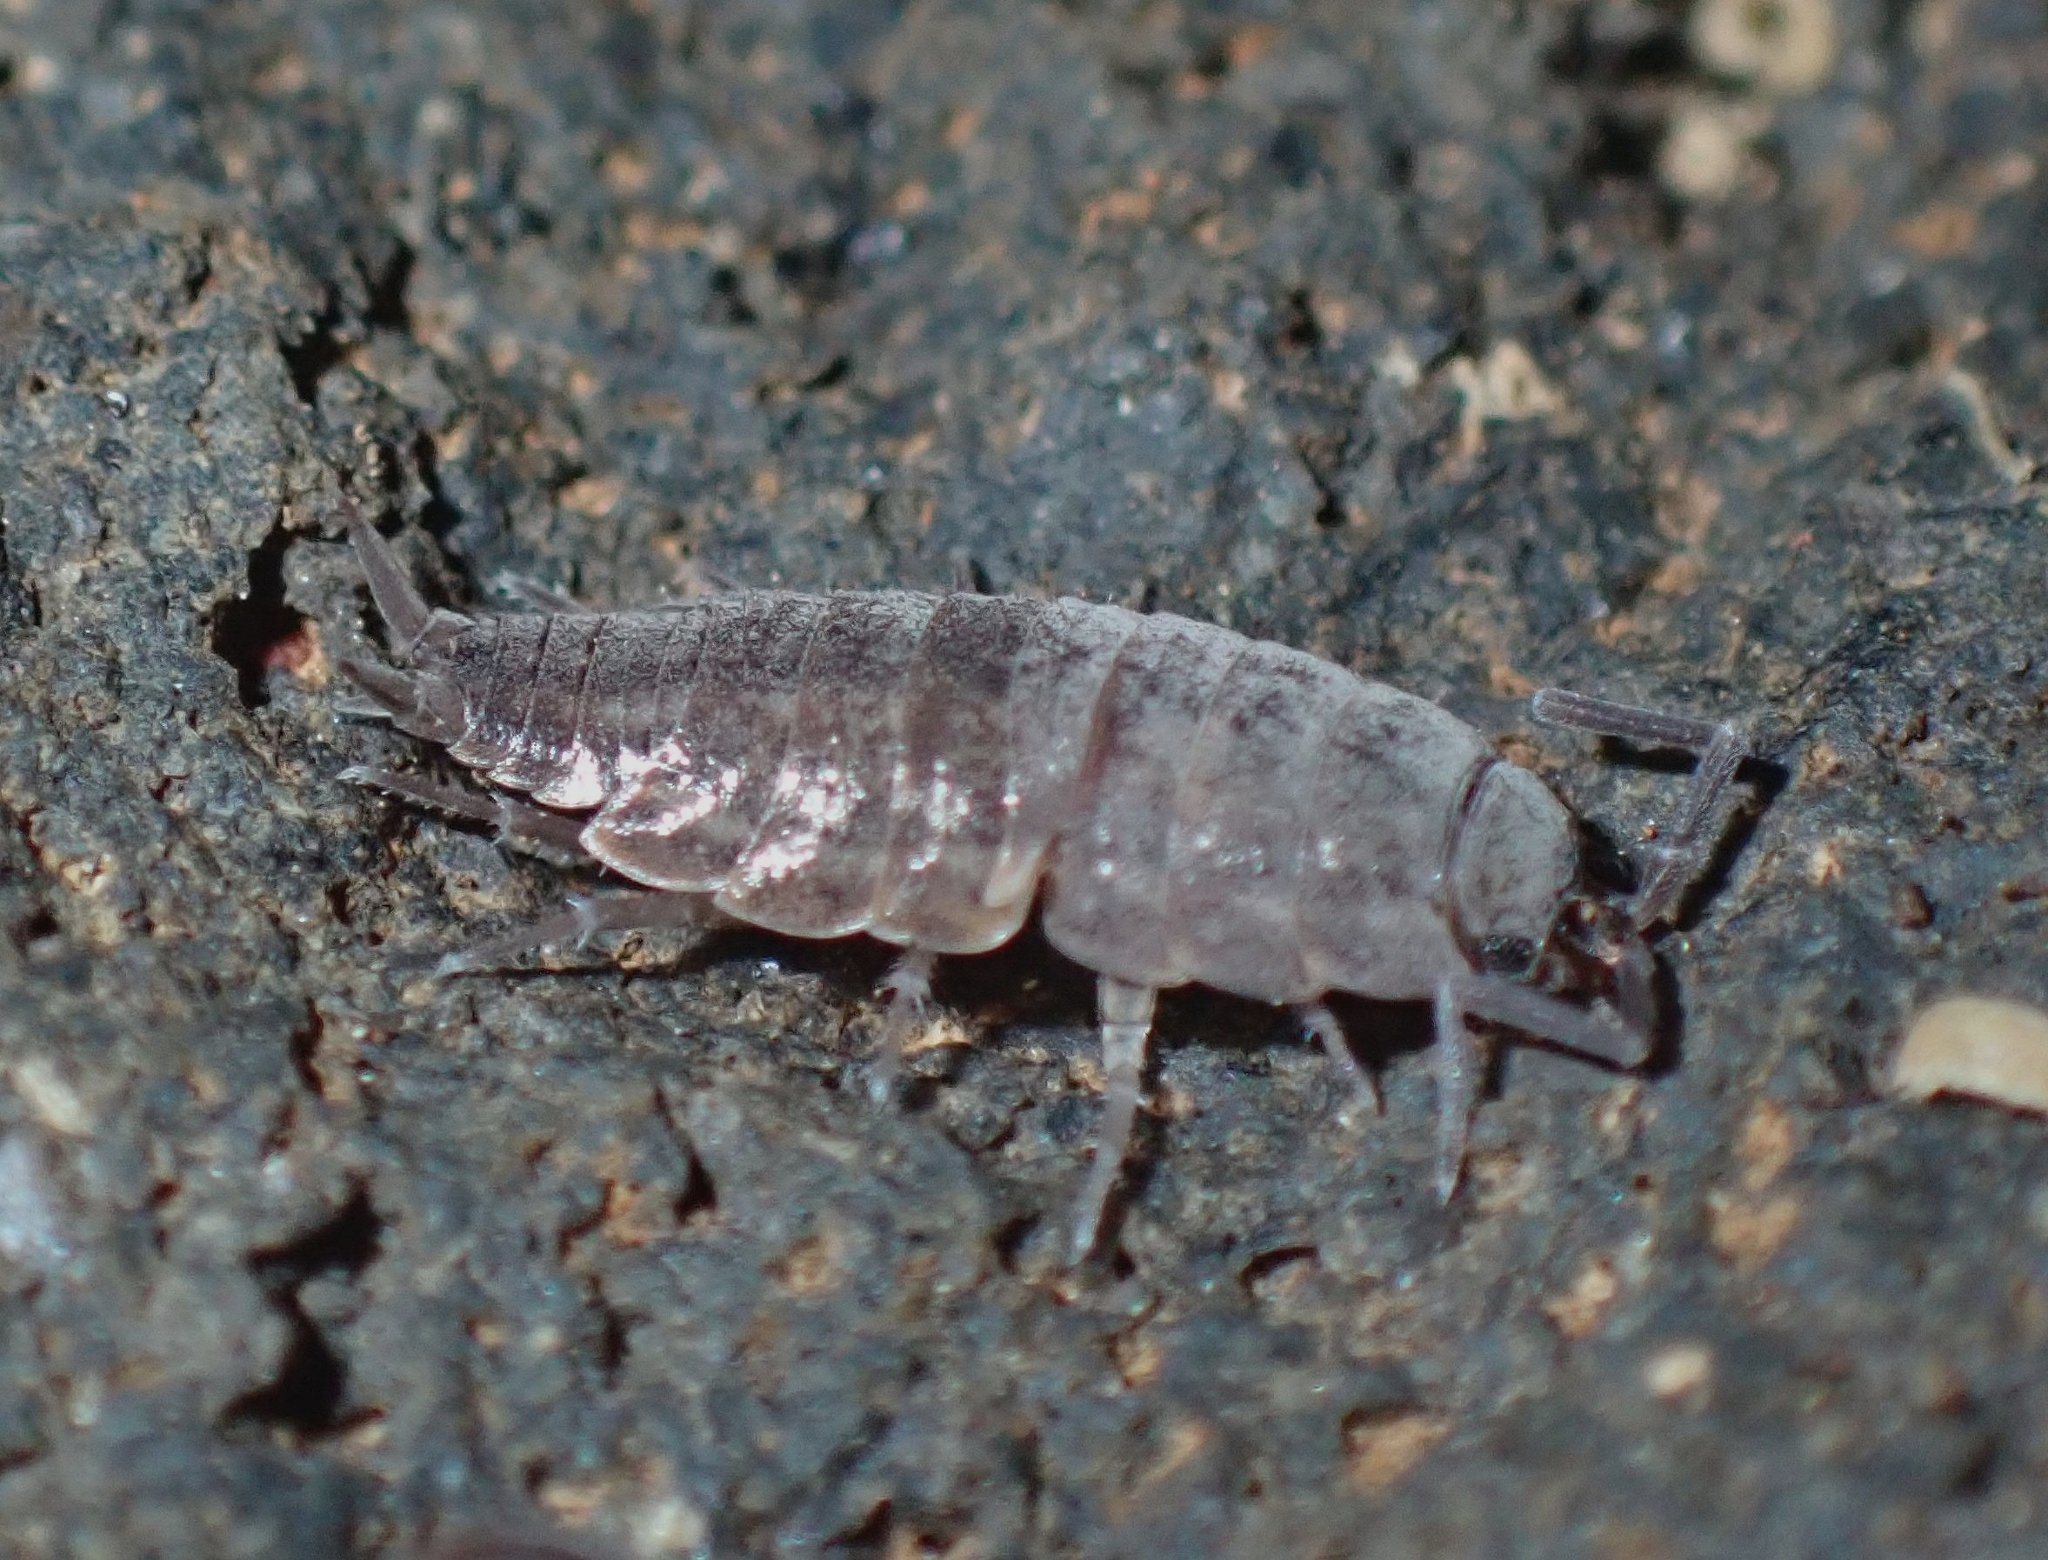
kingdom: Animalia
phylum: Arthropoda
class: Malacostraca
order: Isopoda
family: Porcellionidae
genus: Porcellionides
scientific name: Porcellionides sexfasciatus
